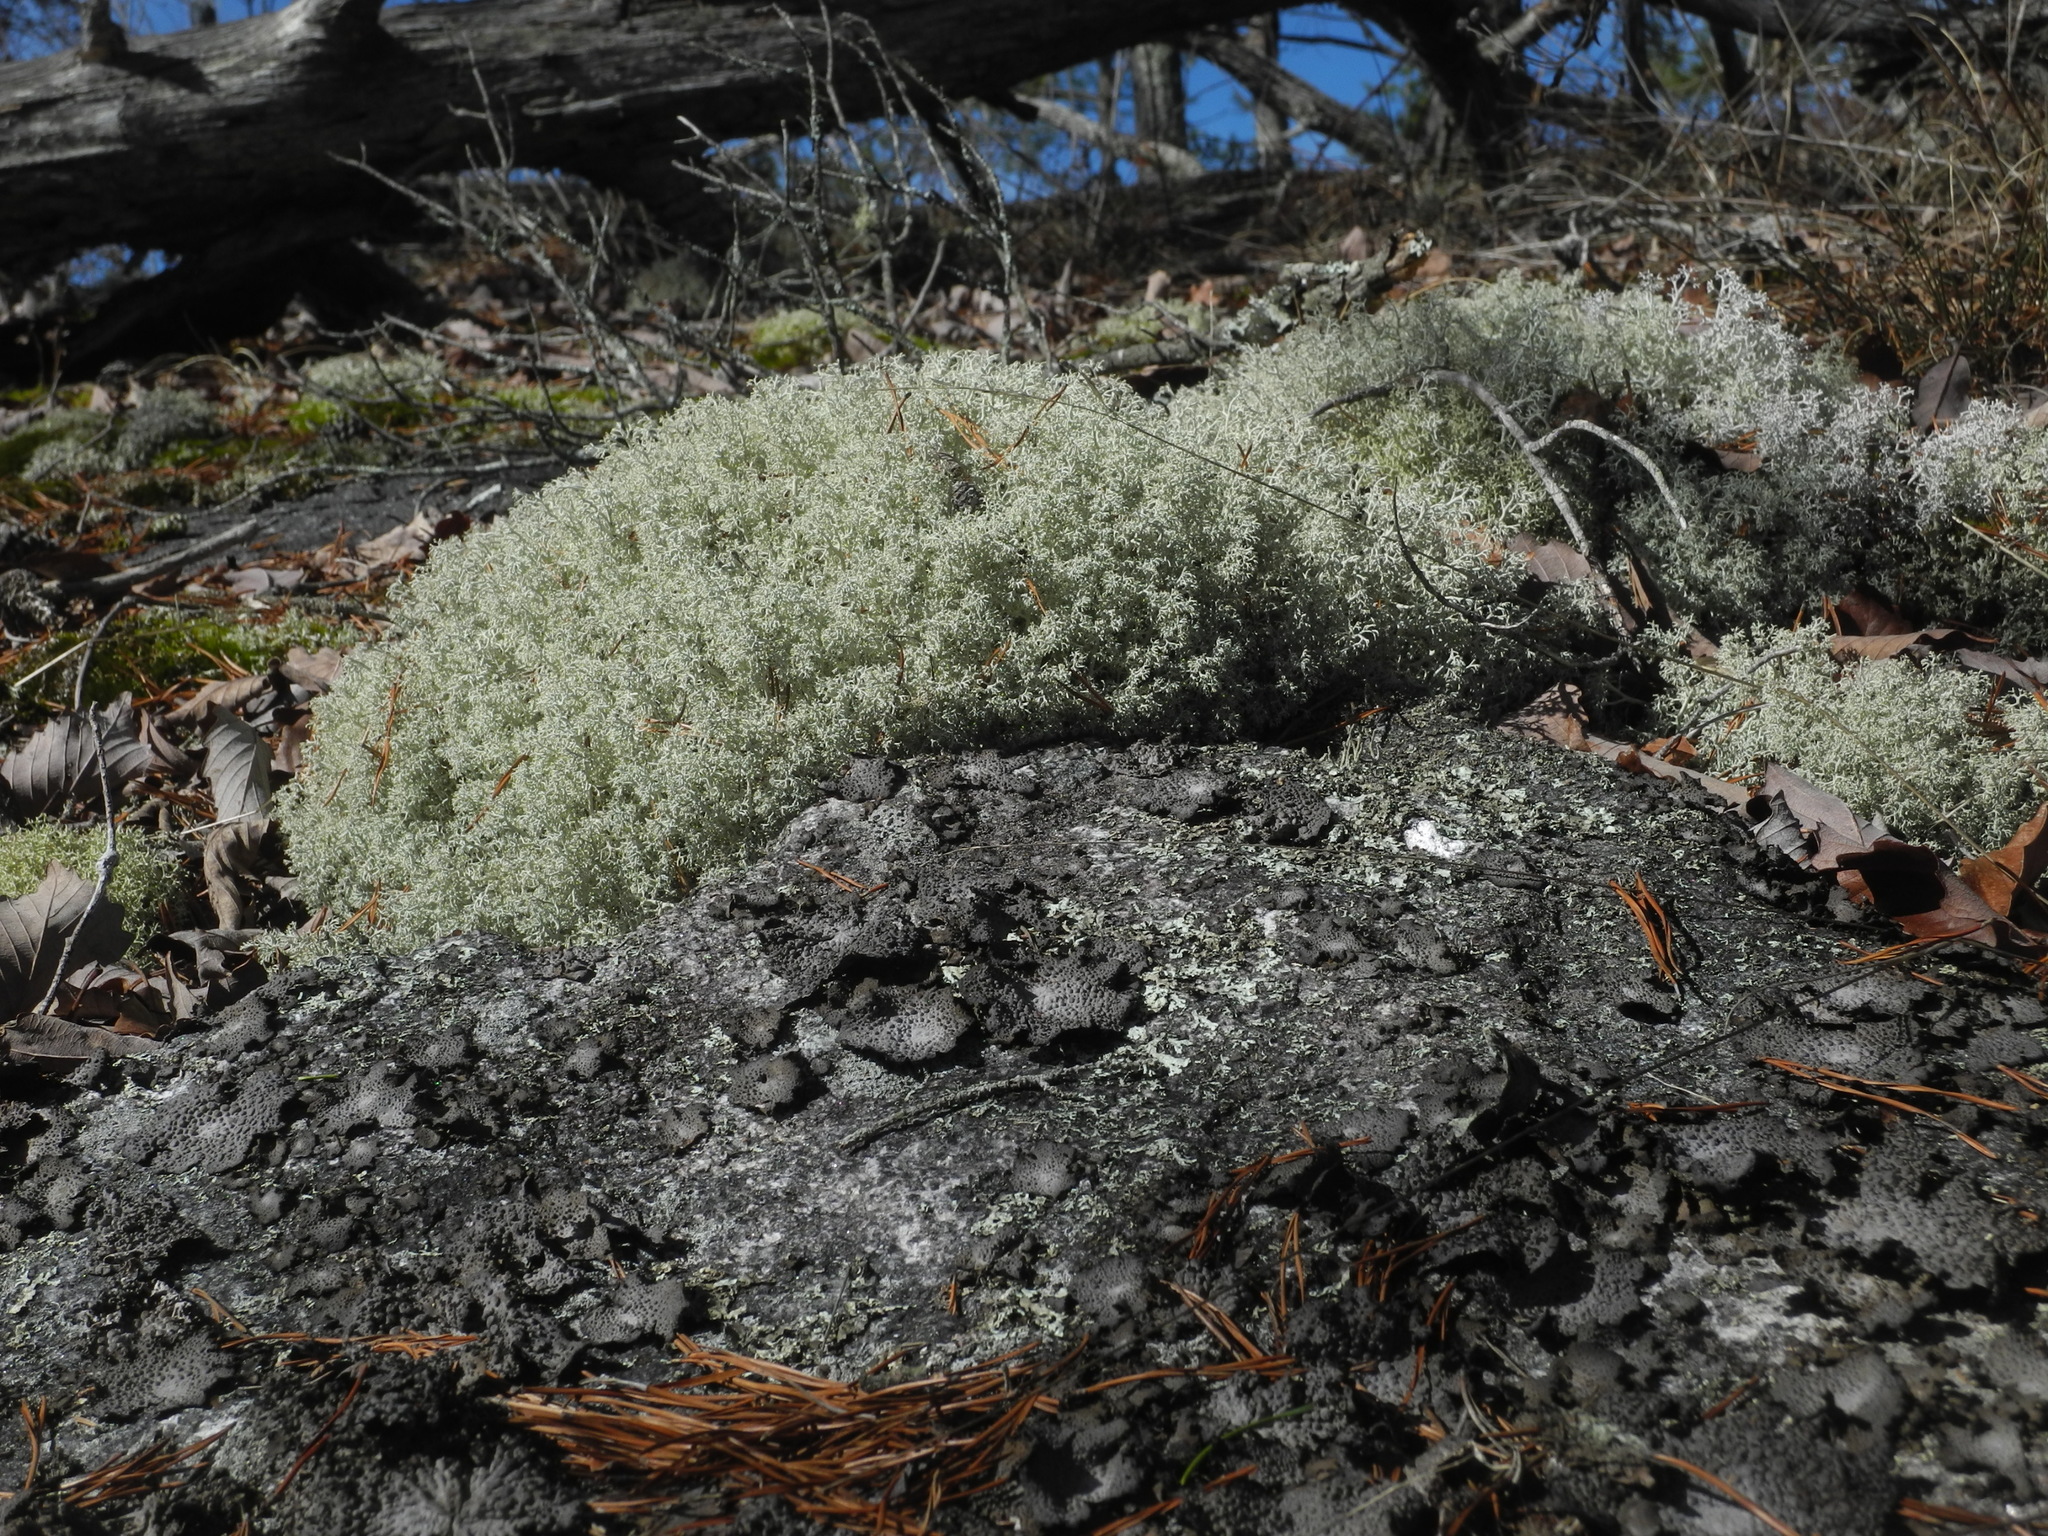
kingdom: Fungi
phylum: Ascomycota
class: Lecanoromycetes
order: Lecanorales
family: Cladoniaceae
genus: Cladonia
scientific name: Cladonia rangiferina
